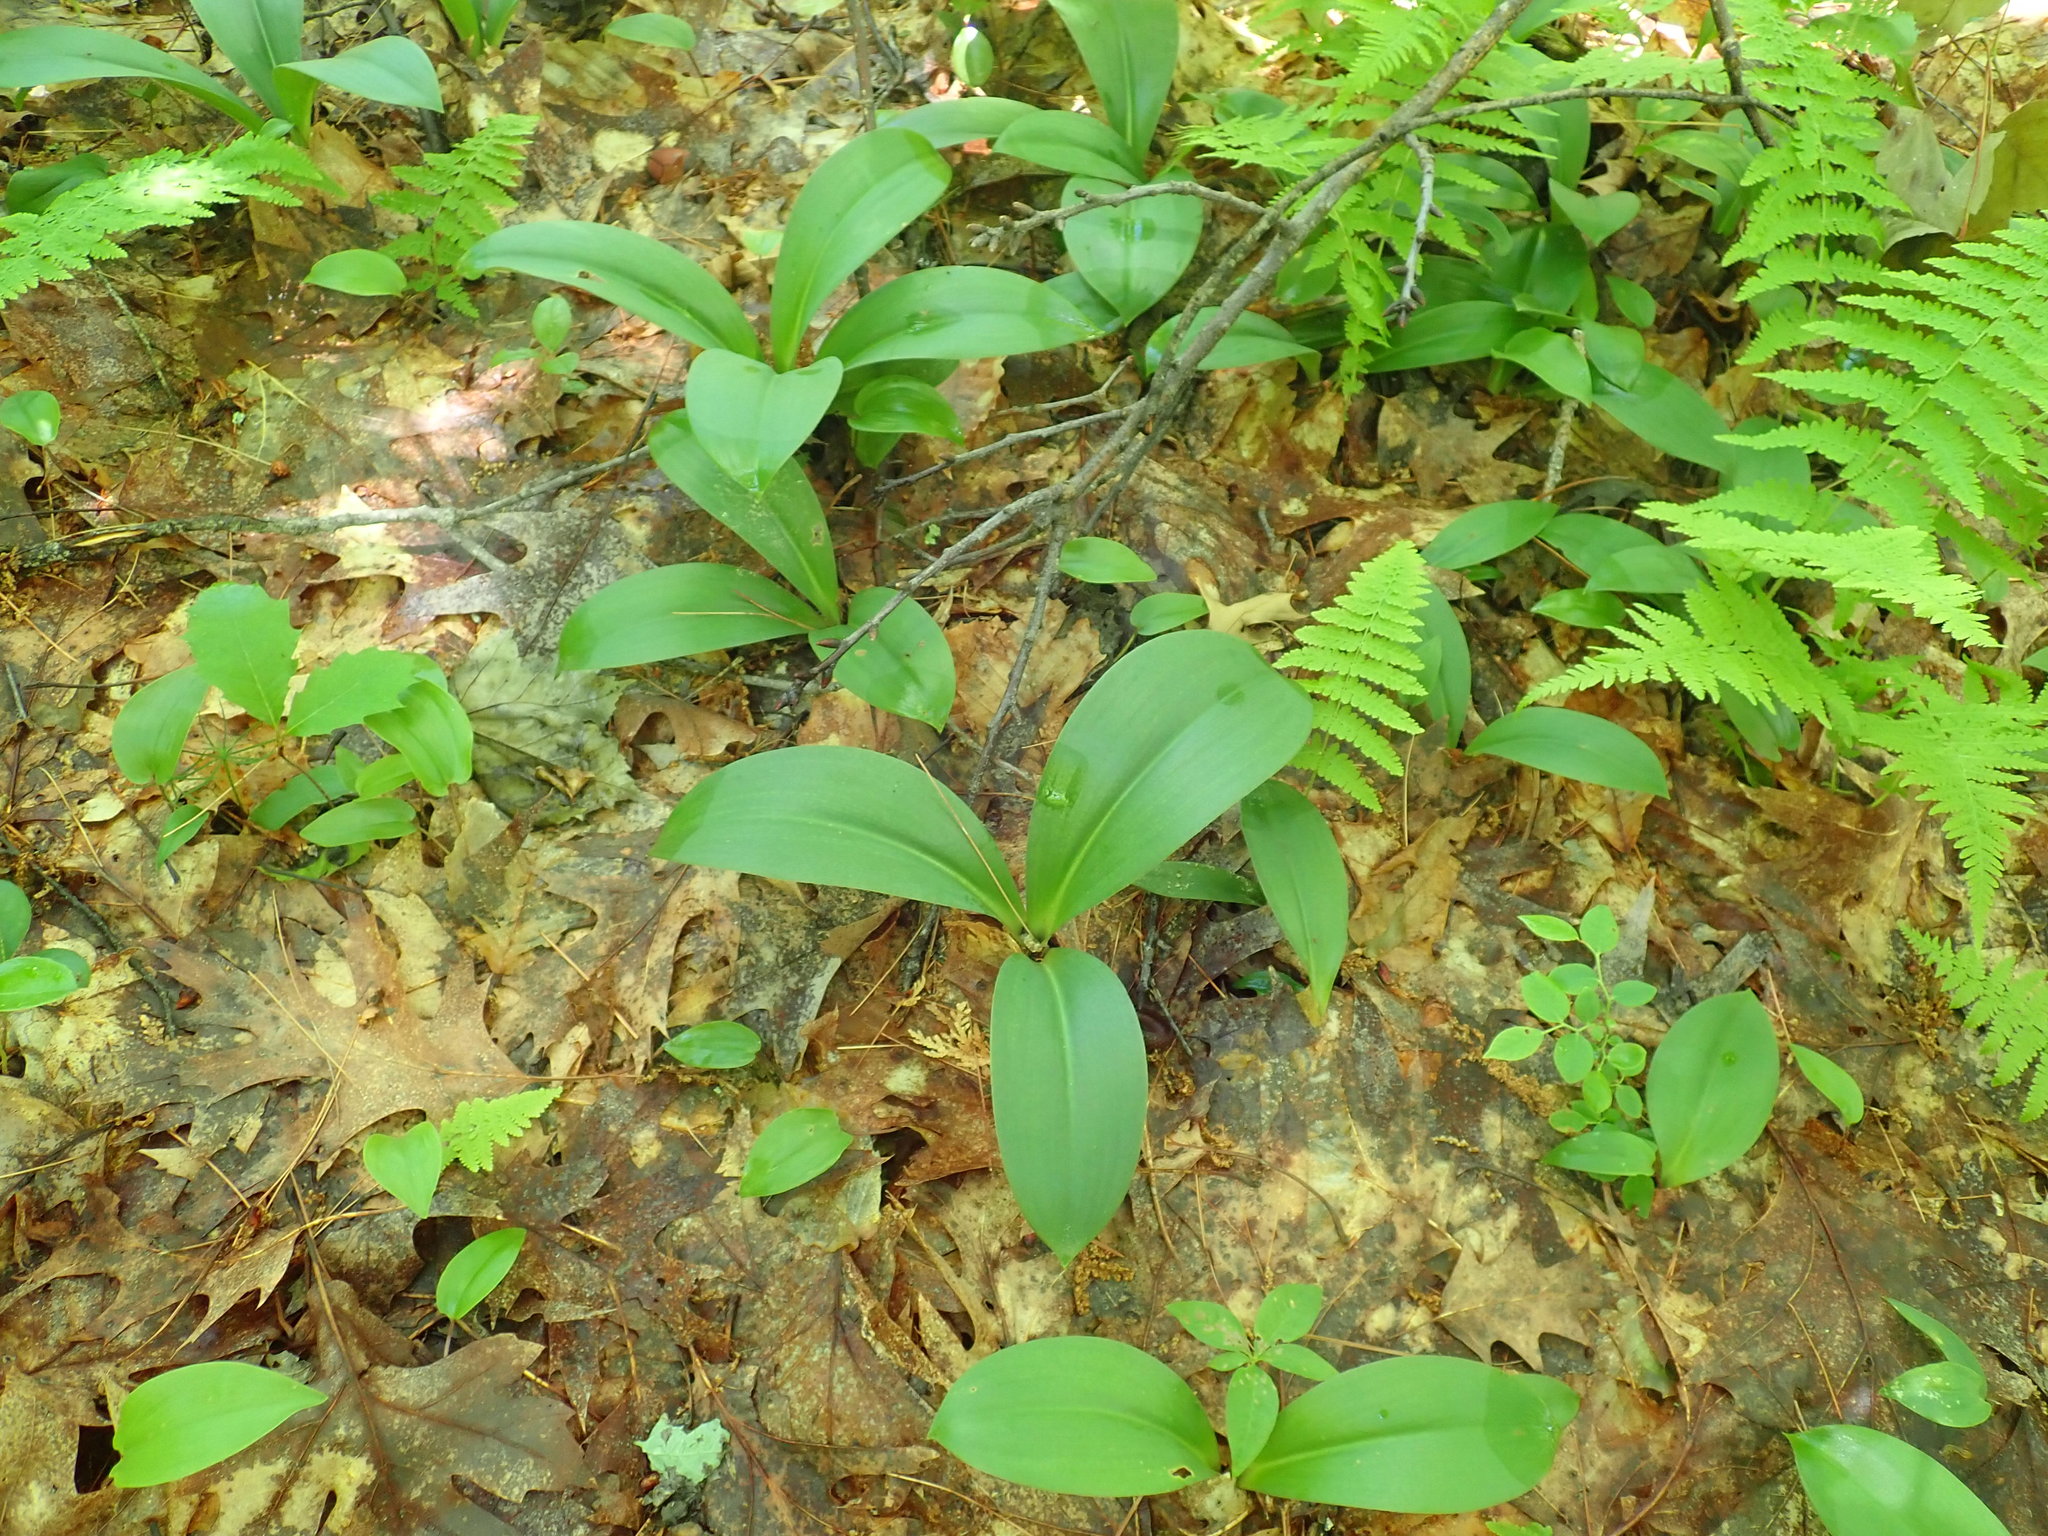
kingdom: Plantae
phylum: Tracheophyta
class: Liliopsida
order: Liliales
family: Liliaceae
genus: Clintonia
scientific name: Clintonia borealis
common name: Yellow clintonia
